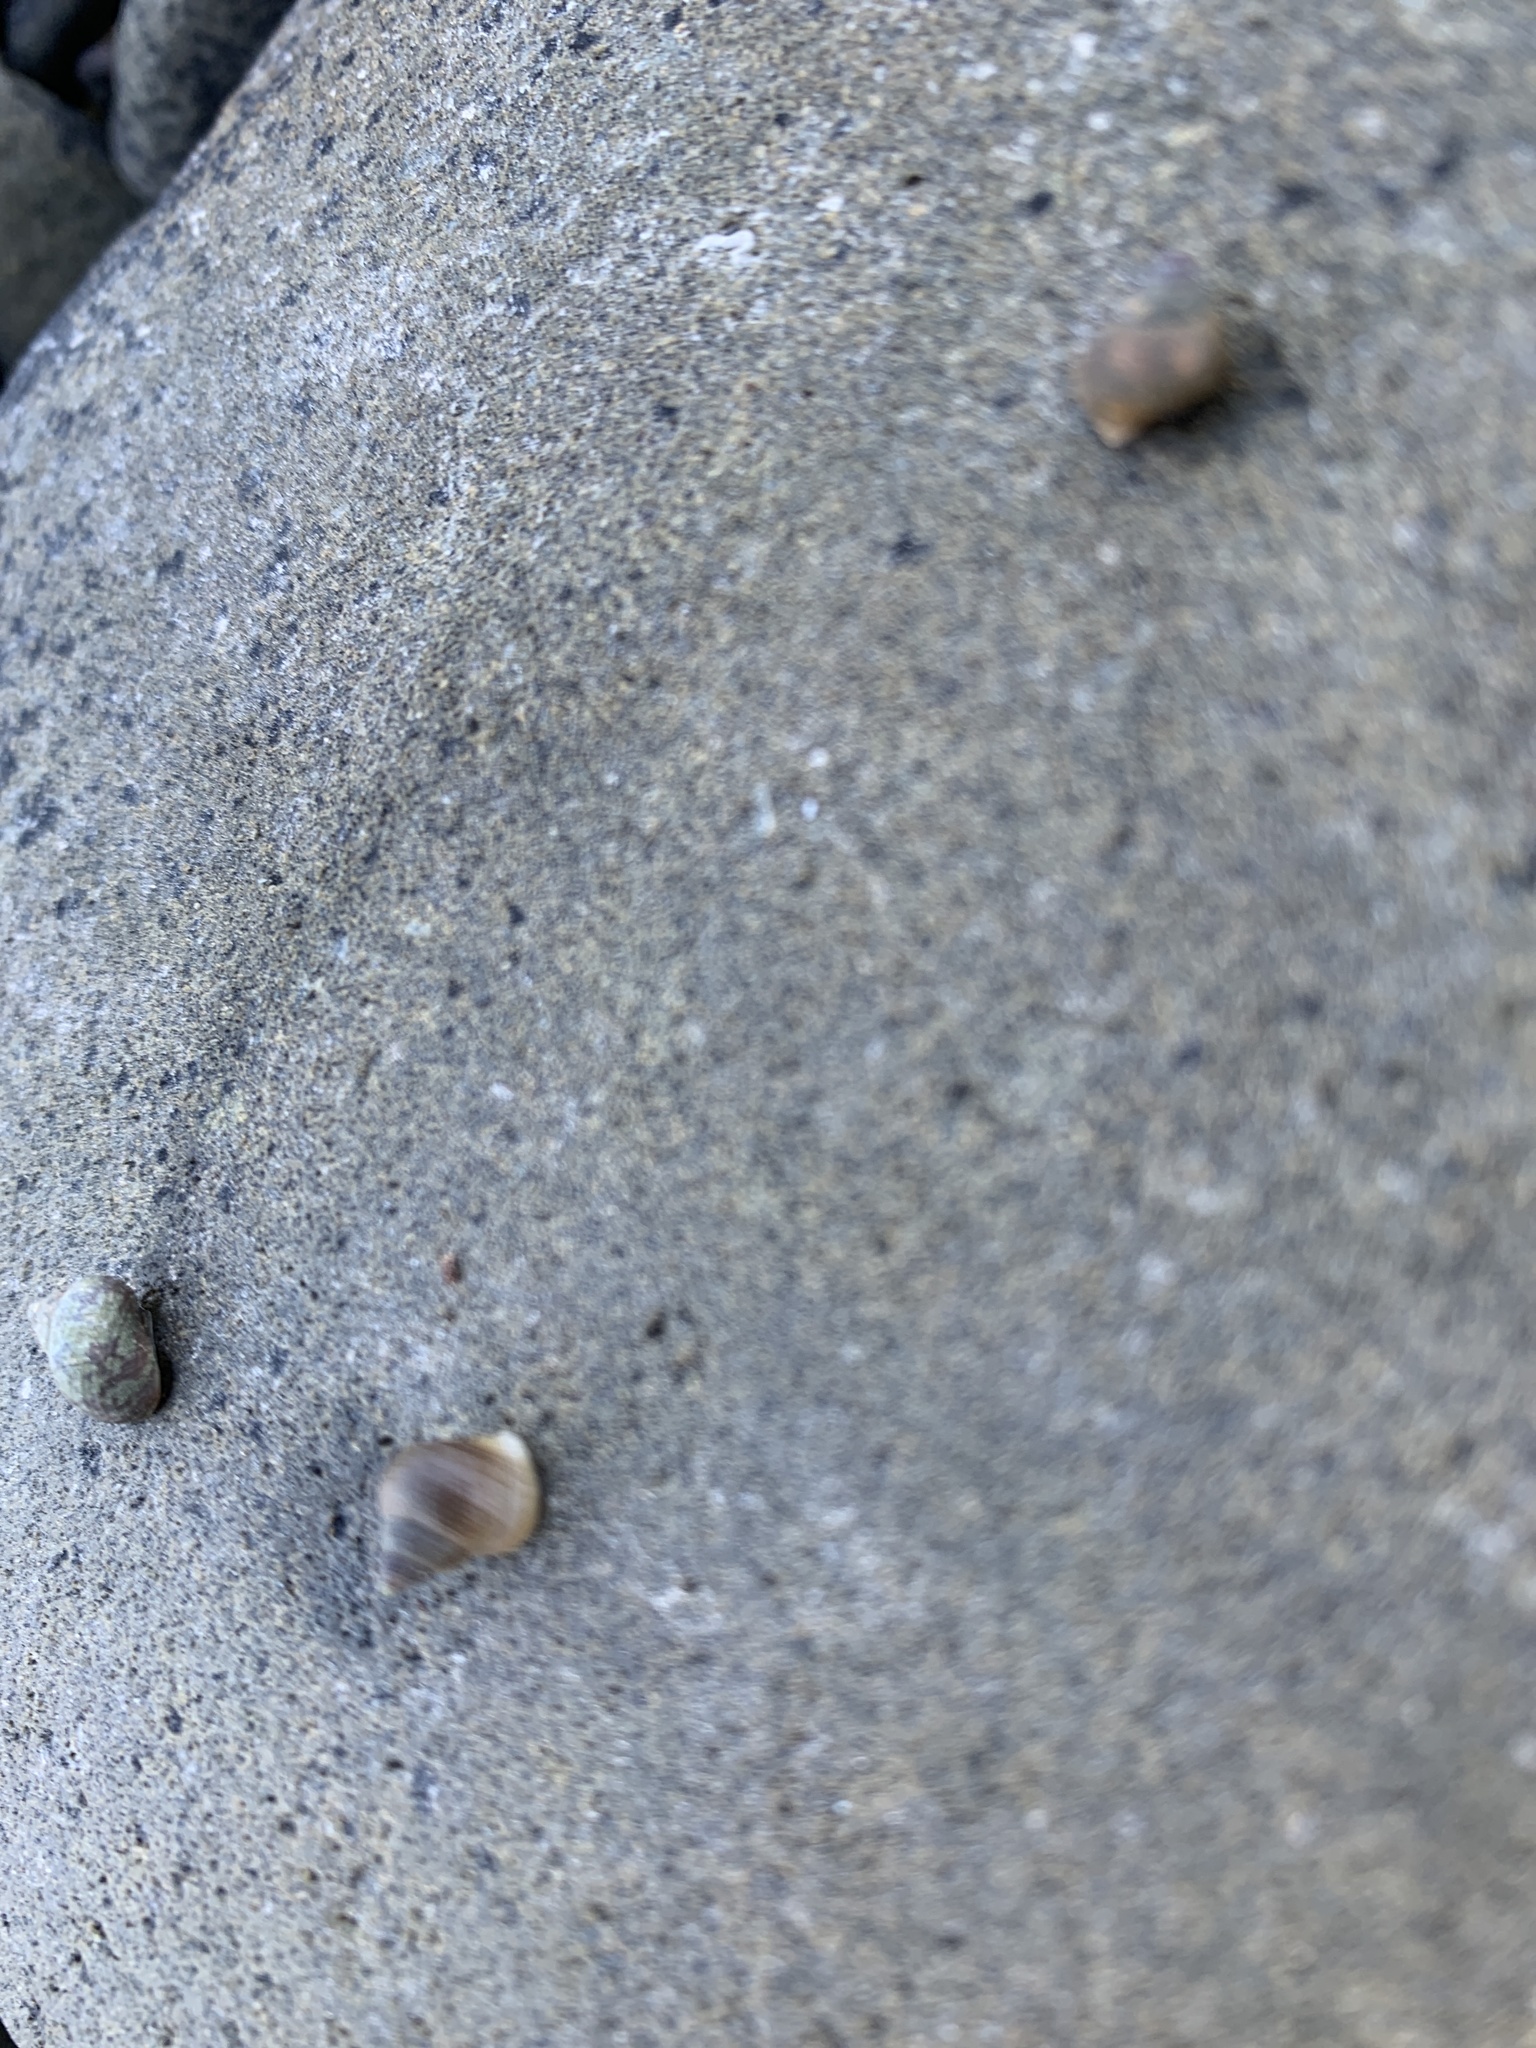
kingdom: Animalia
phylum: Mollusca
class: Gastropoda
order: Littorinimorpha
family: Littorinidae
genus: Littorina
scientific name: Littorina saxatilis
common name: Black-lined periwinkle
